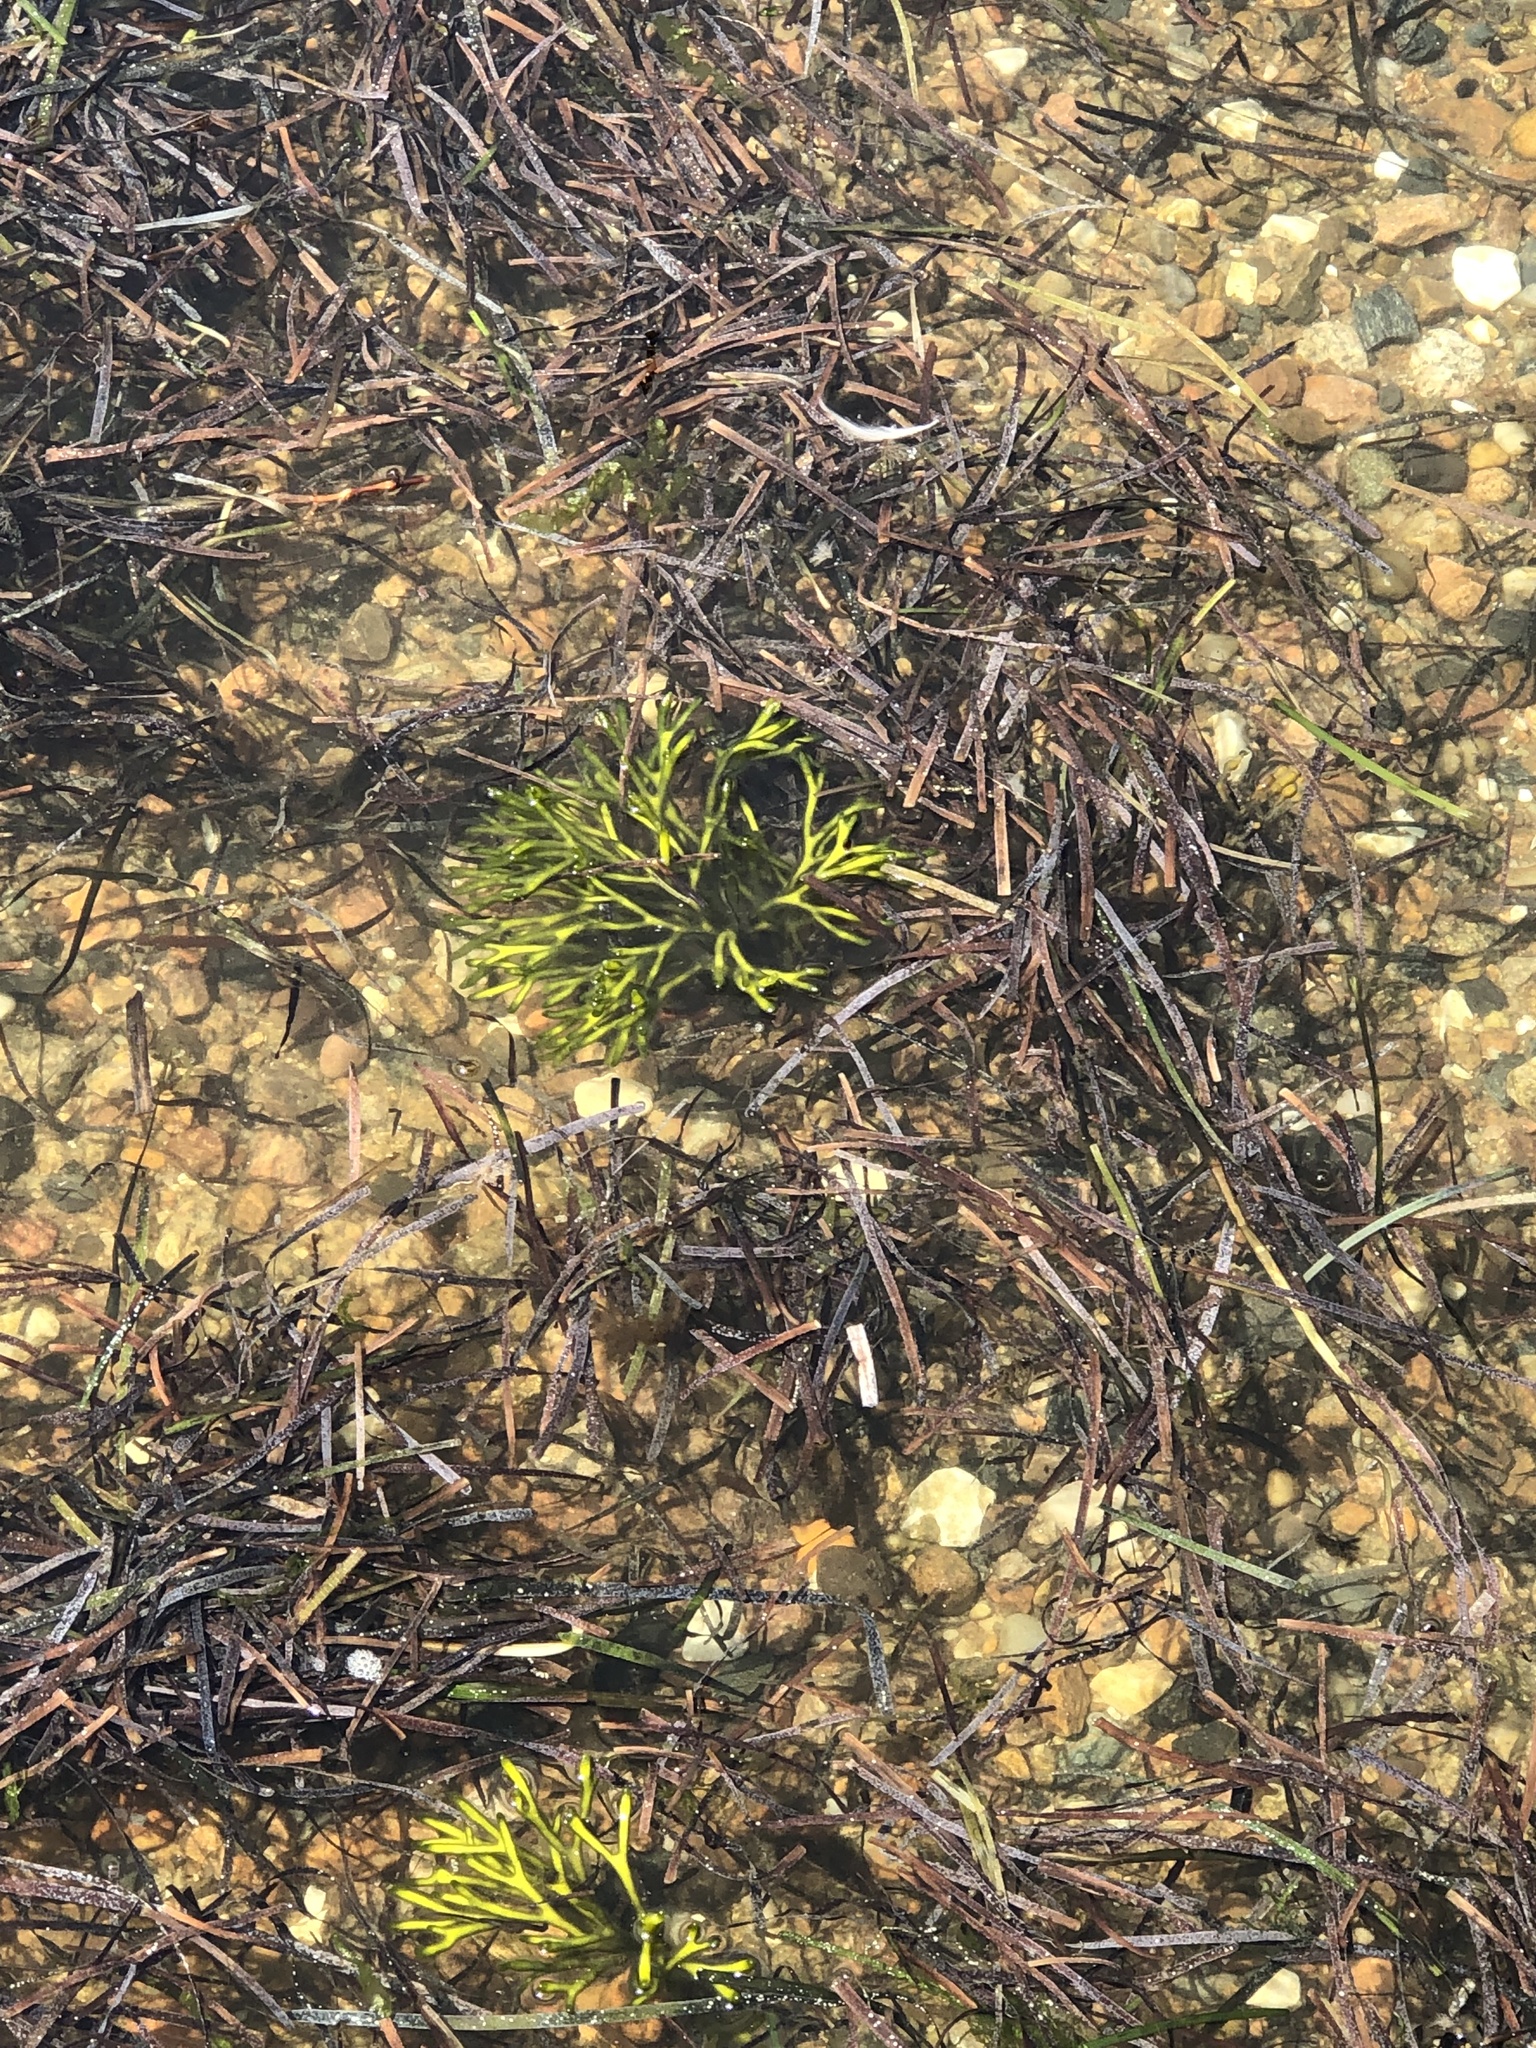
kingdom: Plantae
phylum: Chlorophyta
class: Ulvophyceae
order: Bryopsidales
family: Codiaceae
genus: Codium
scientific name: Codium fragile
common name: Dead man's fingers
